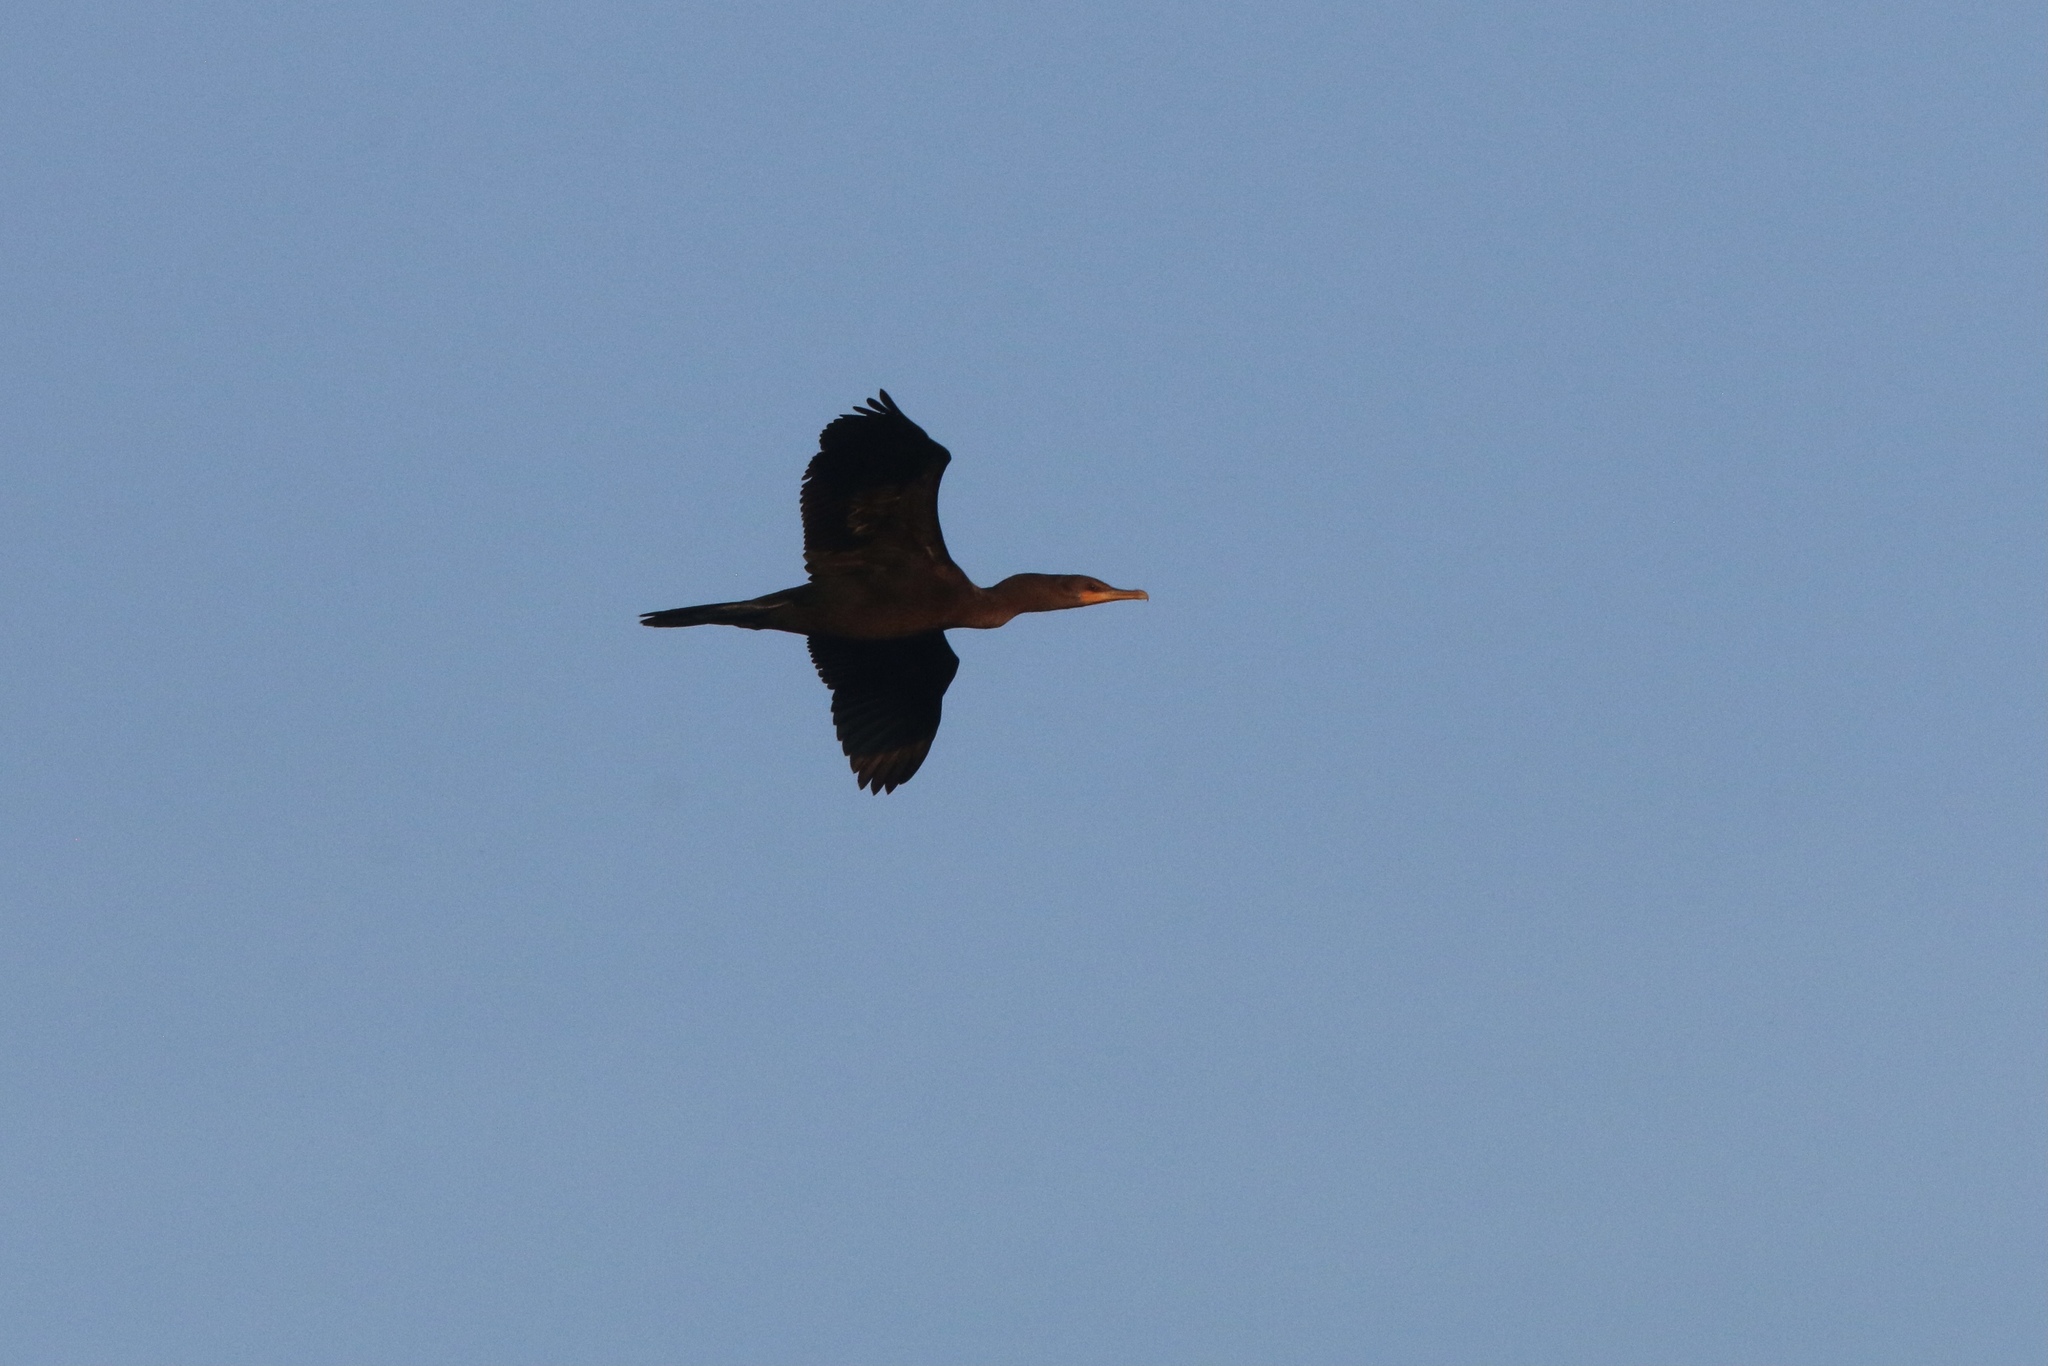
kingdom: Animalia
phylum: Chordata
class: Aves
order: Suliformes
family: Phalacrocoracidae
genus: Phalacrocorax
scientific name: Phalacrocorax auritus
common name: Double-crested cormorant
